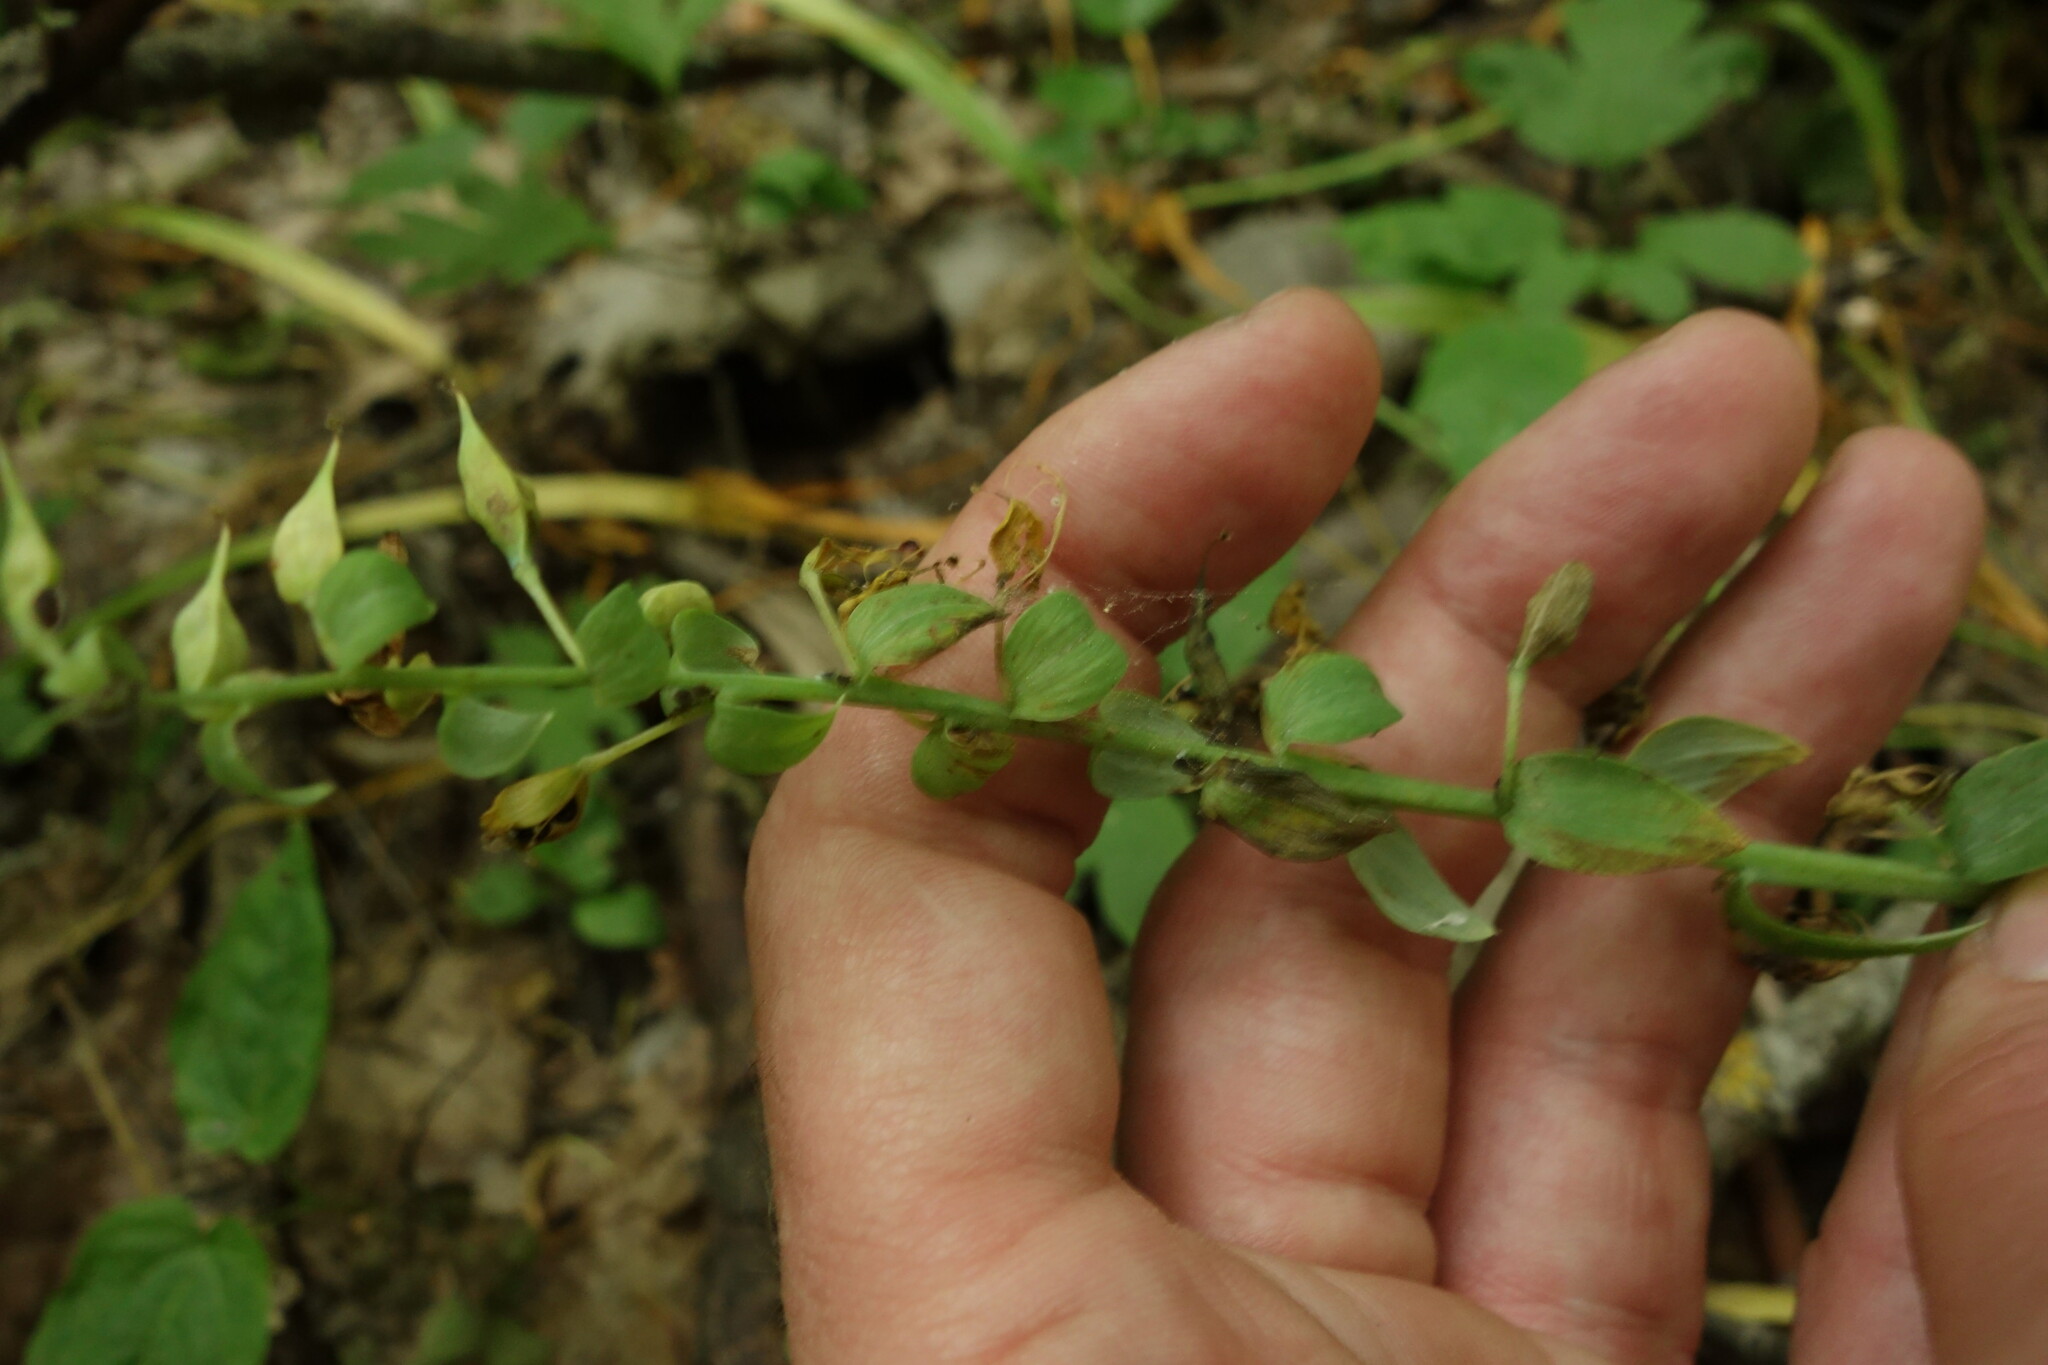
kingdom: Plantae
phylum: Tracheophyta
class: Magnoliopsida
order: Ranunculales
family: Papaveraceae
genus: Corydalis
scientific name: Corydalis cava
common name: Hollowroot
